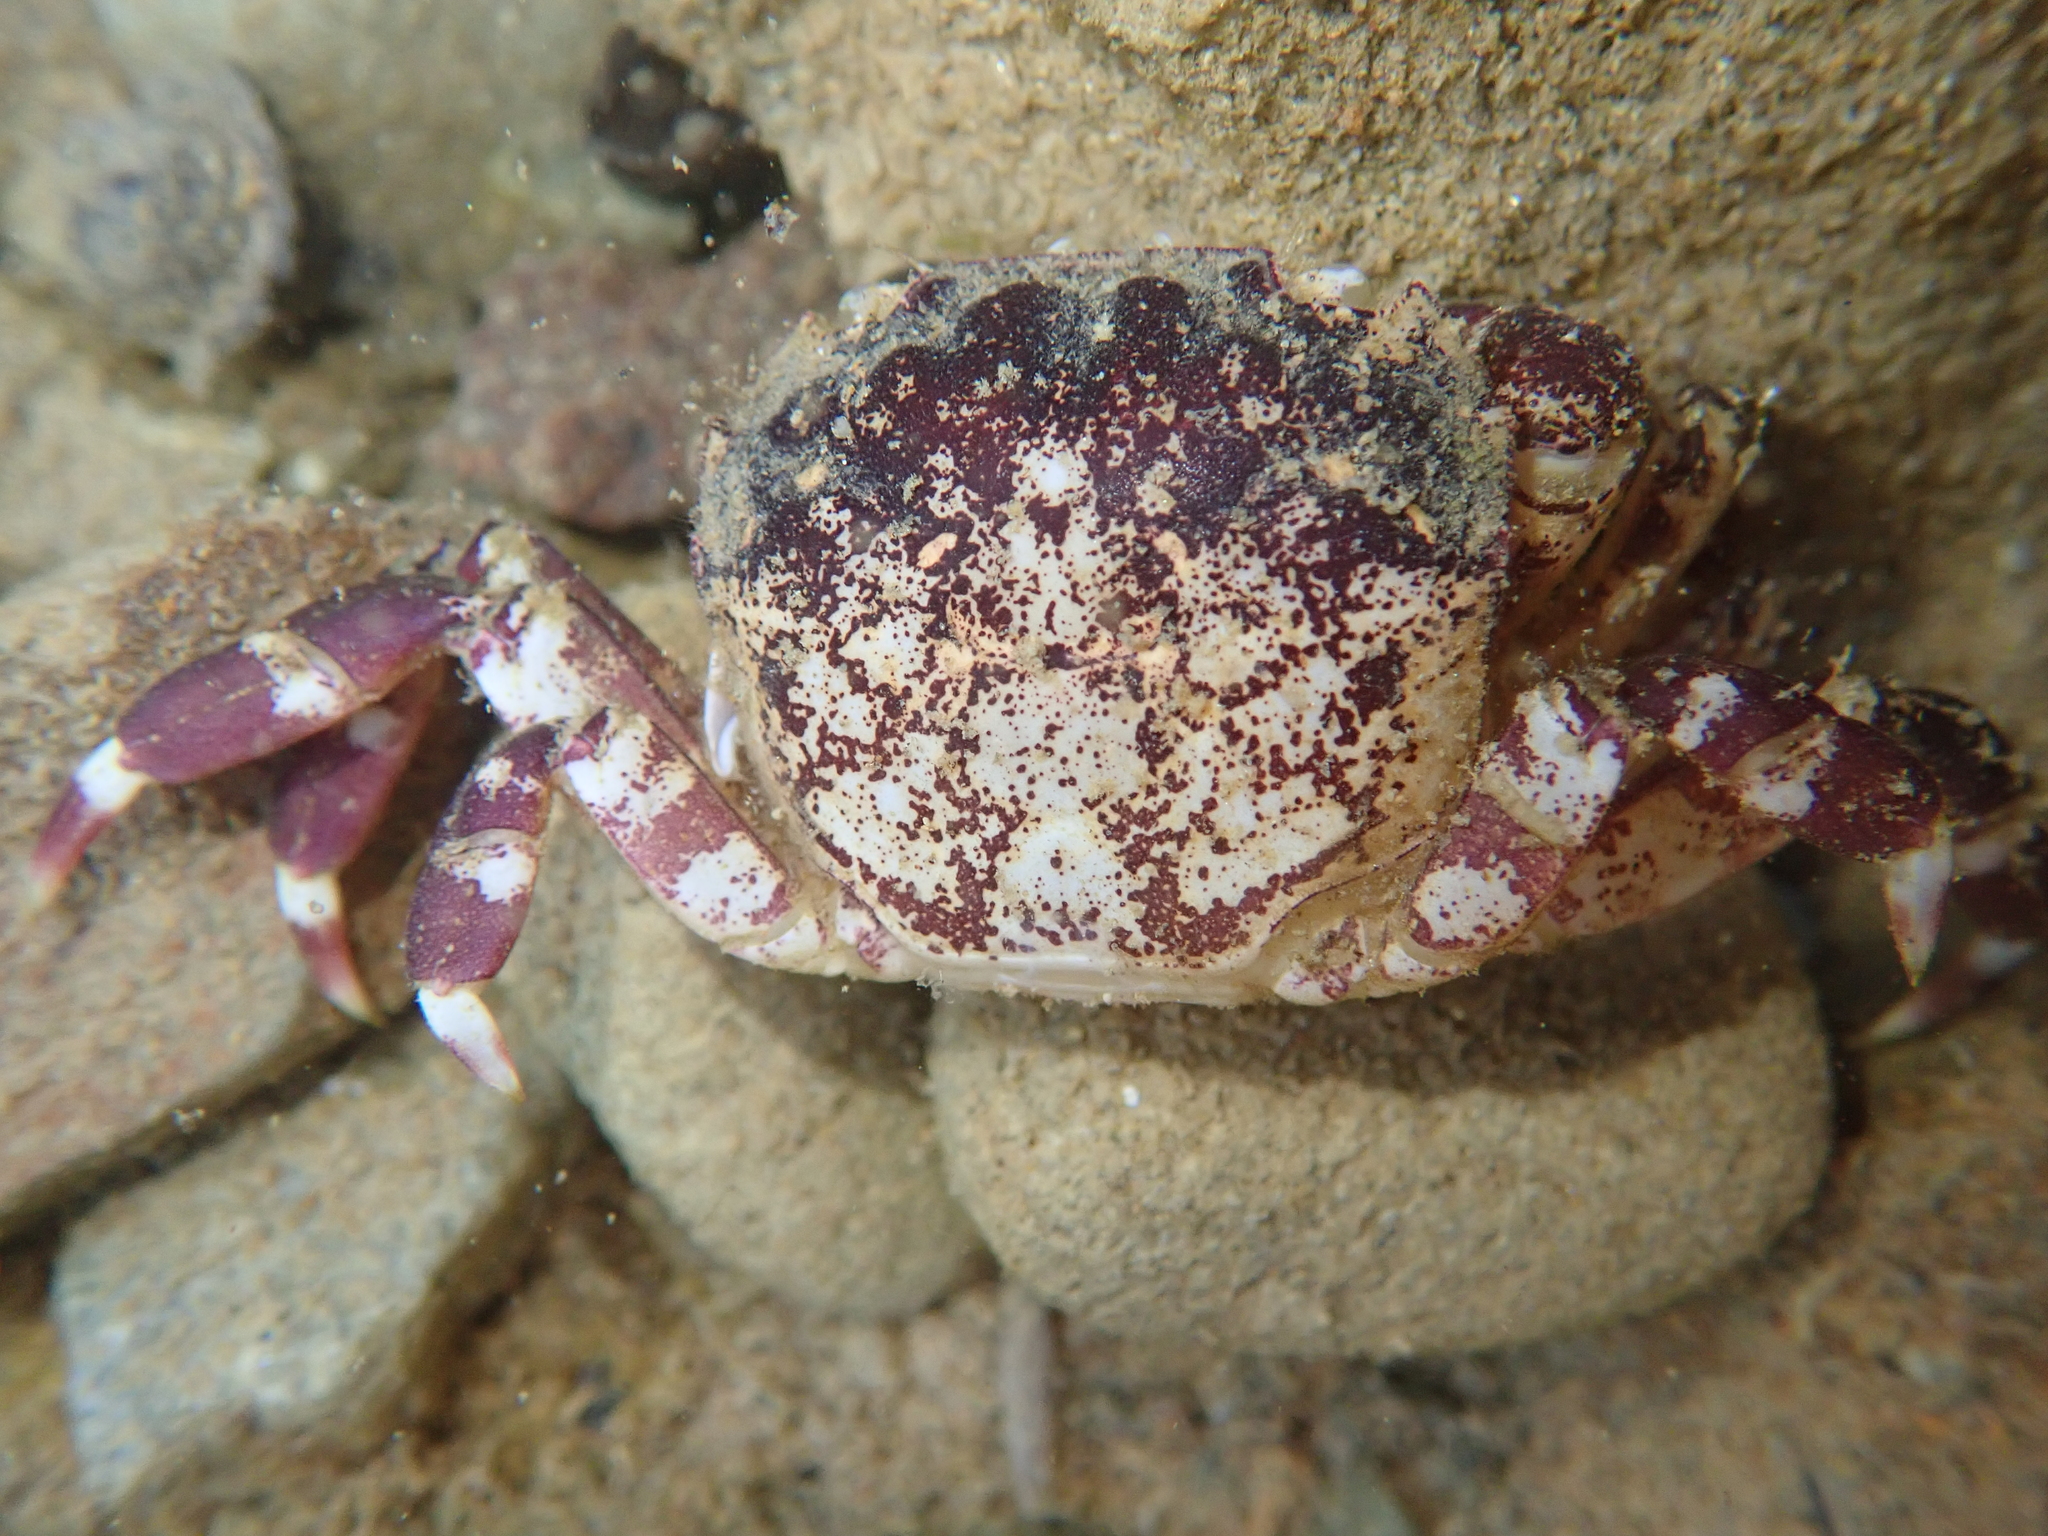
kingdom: Animalia
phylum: Arthropoda
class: Malacostraca
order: Decapoda
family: Varunidae
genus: Hemigrapsus
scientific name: Hemigrapsus sexdentatus
